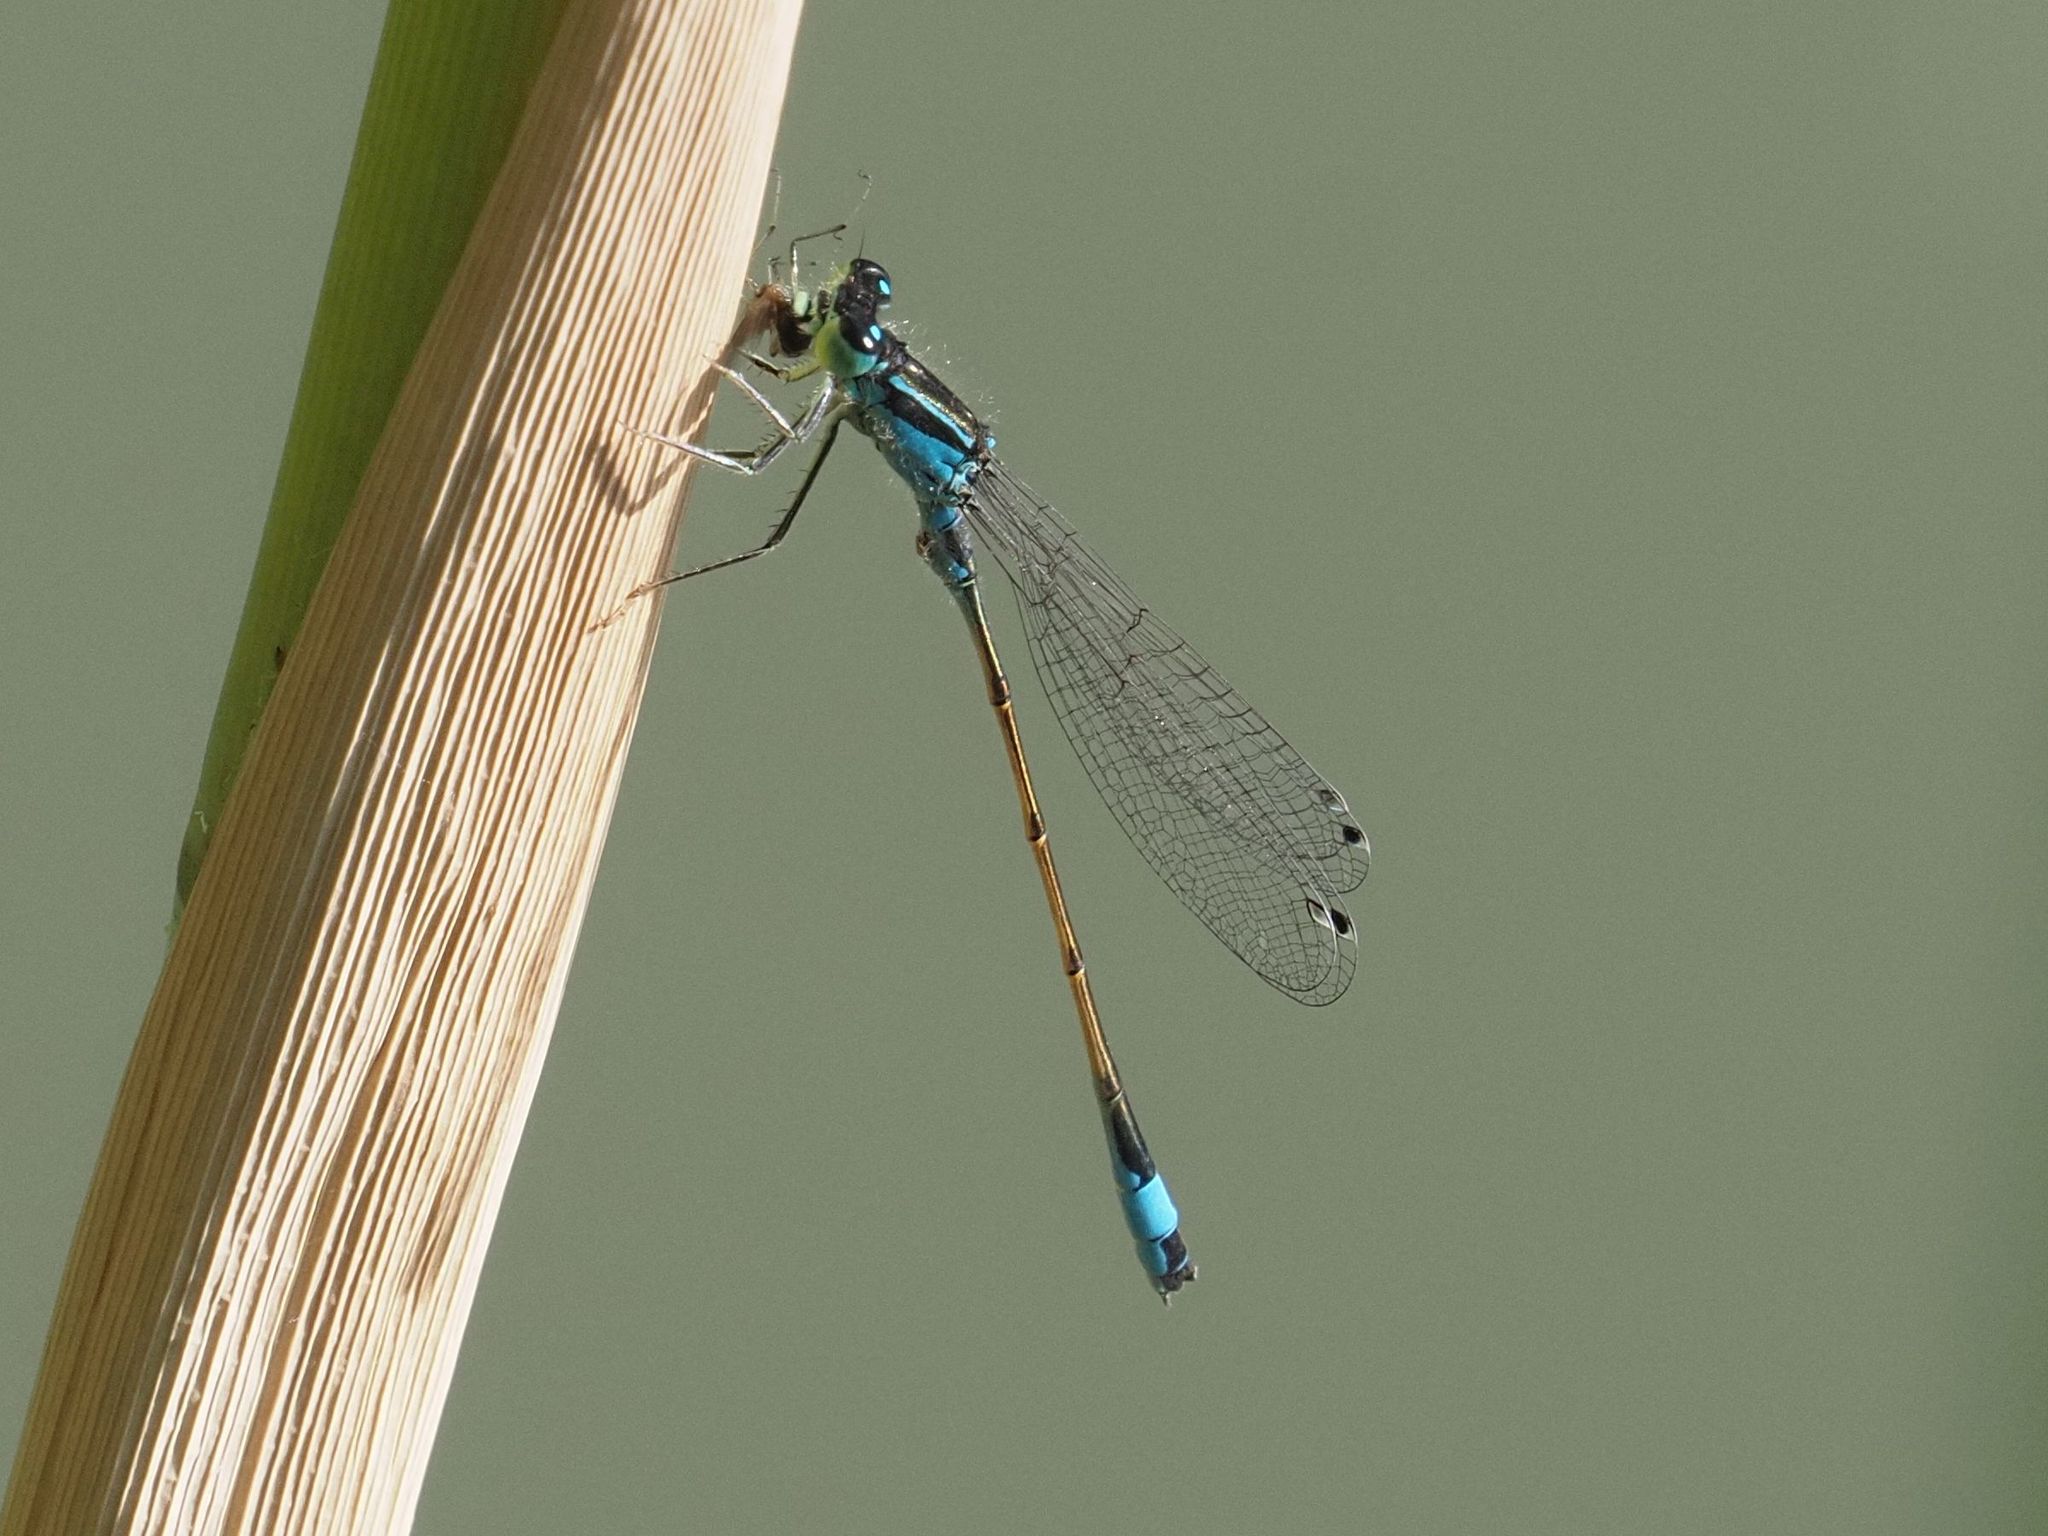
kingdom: Animalia
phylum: Arthropoda
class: Insecta
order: Odonata
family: Coenagrionidae
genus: Ischnura
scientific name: Ischnura elegans
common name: Blue-tailed damselfly
